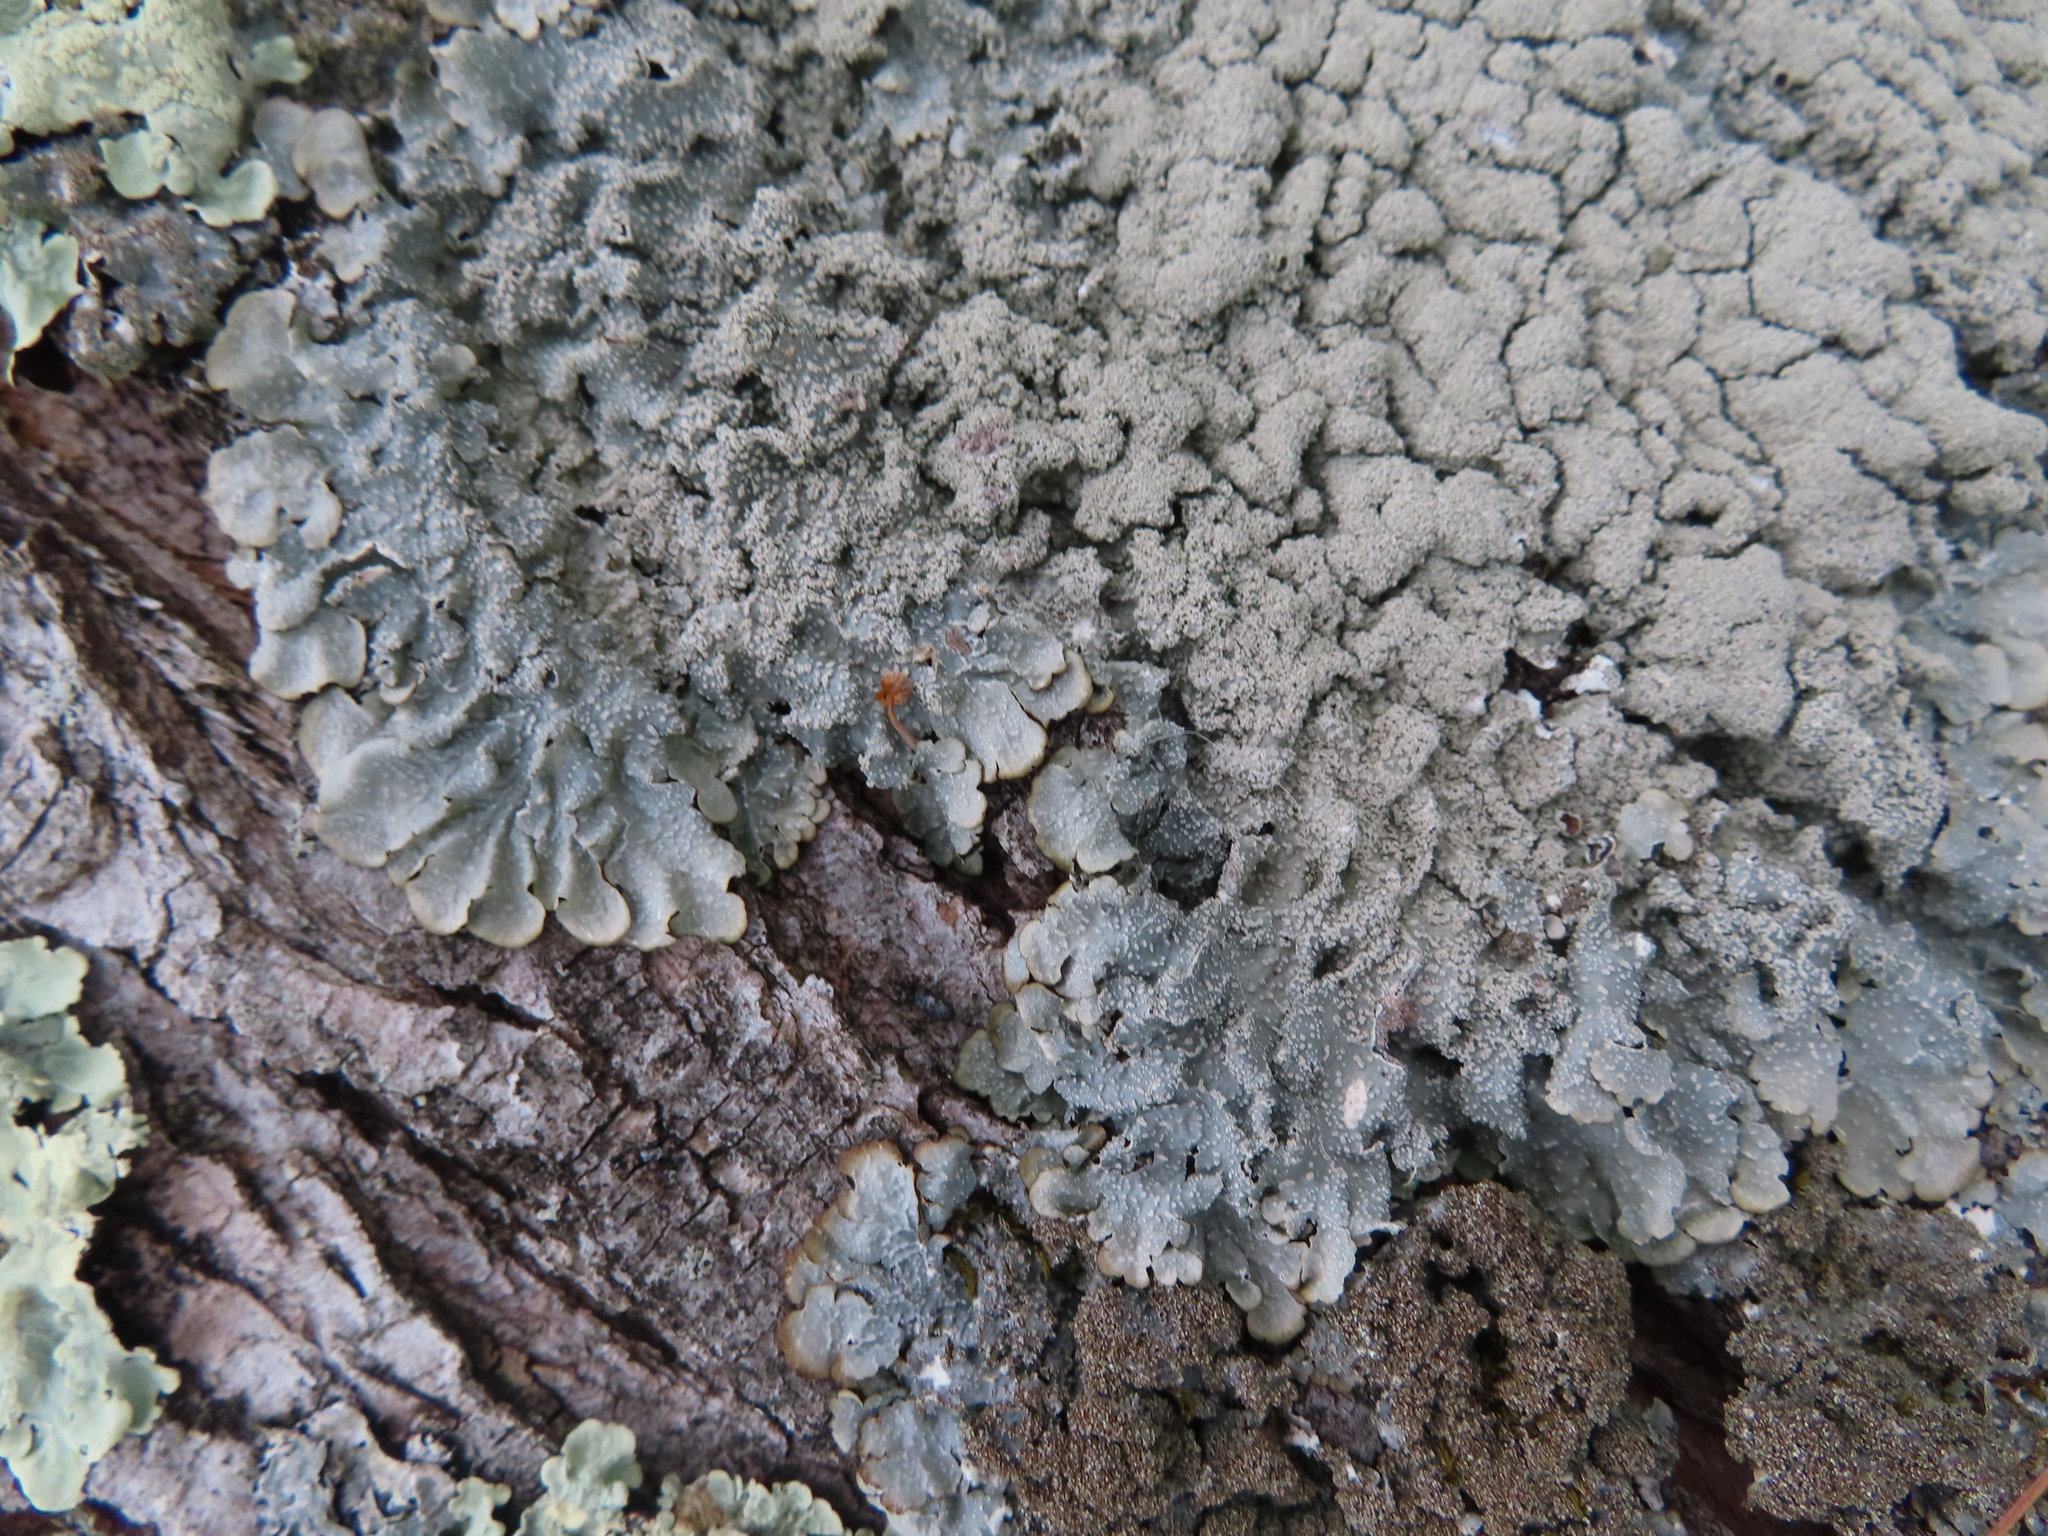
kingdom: Fungi
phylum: Ascomycota
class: Lecanoromycetes
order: Lecanorales
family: Parmeliaceae
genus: Punctelia
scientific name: Punctelia missouriensis
